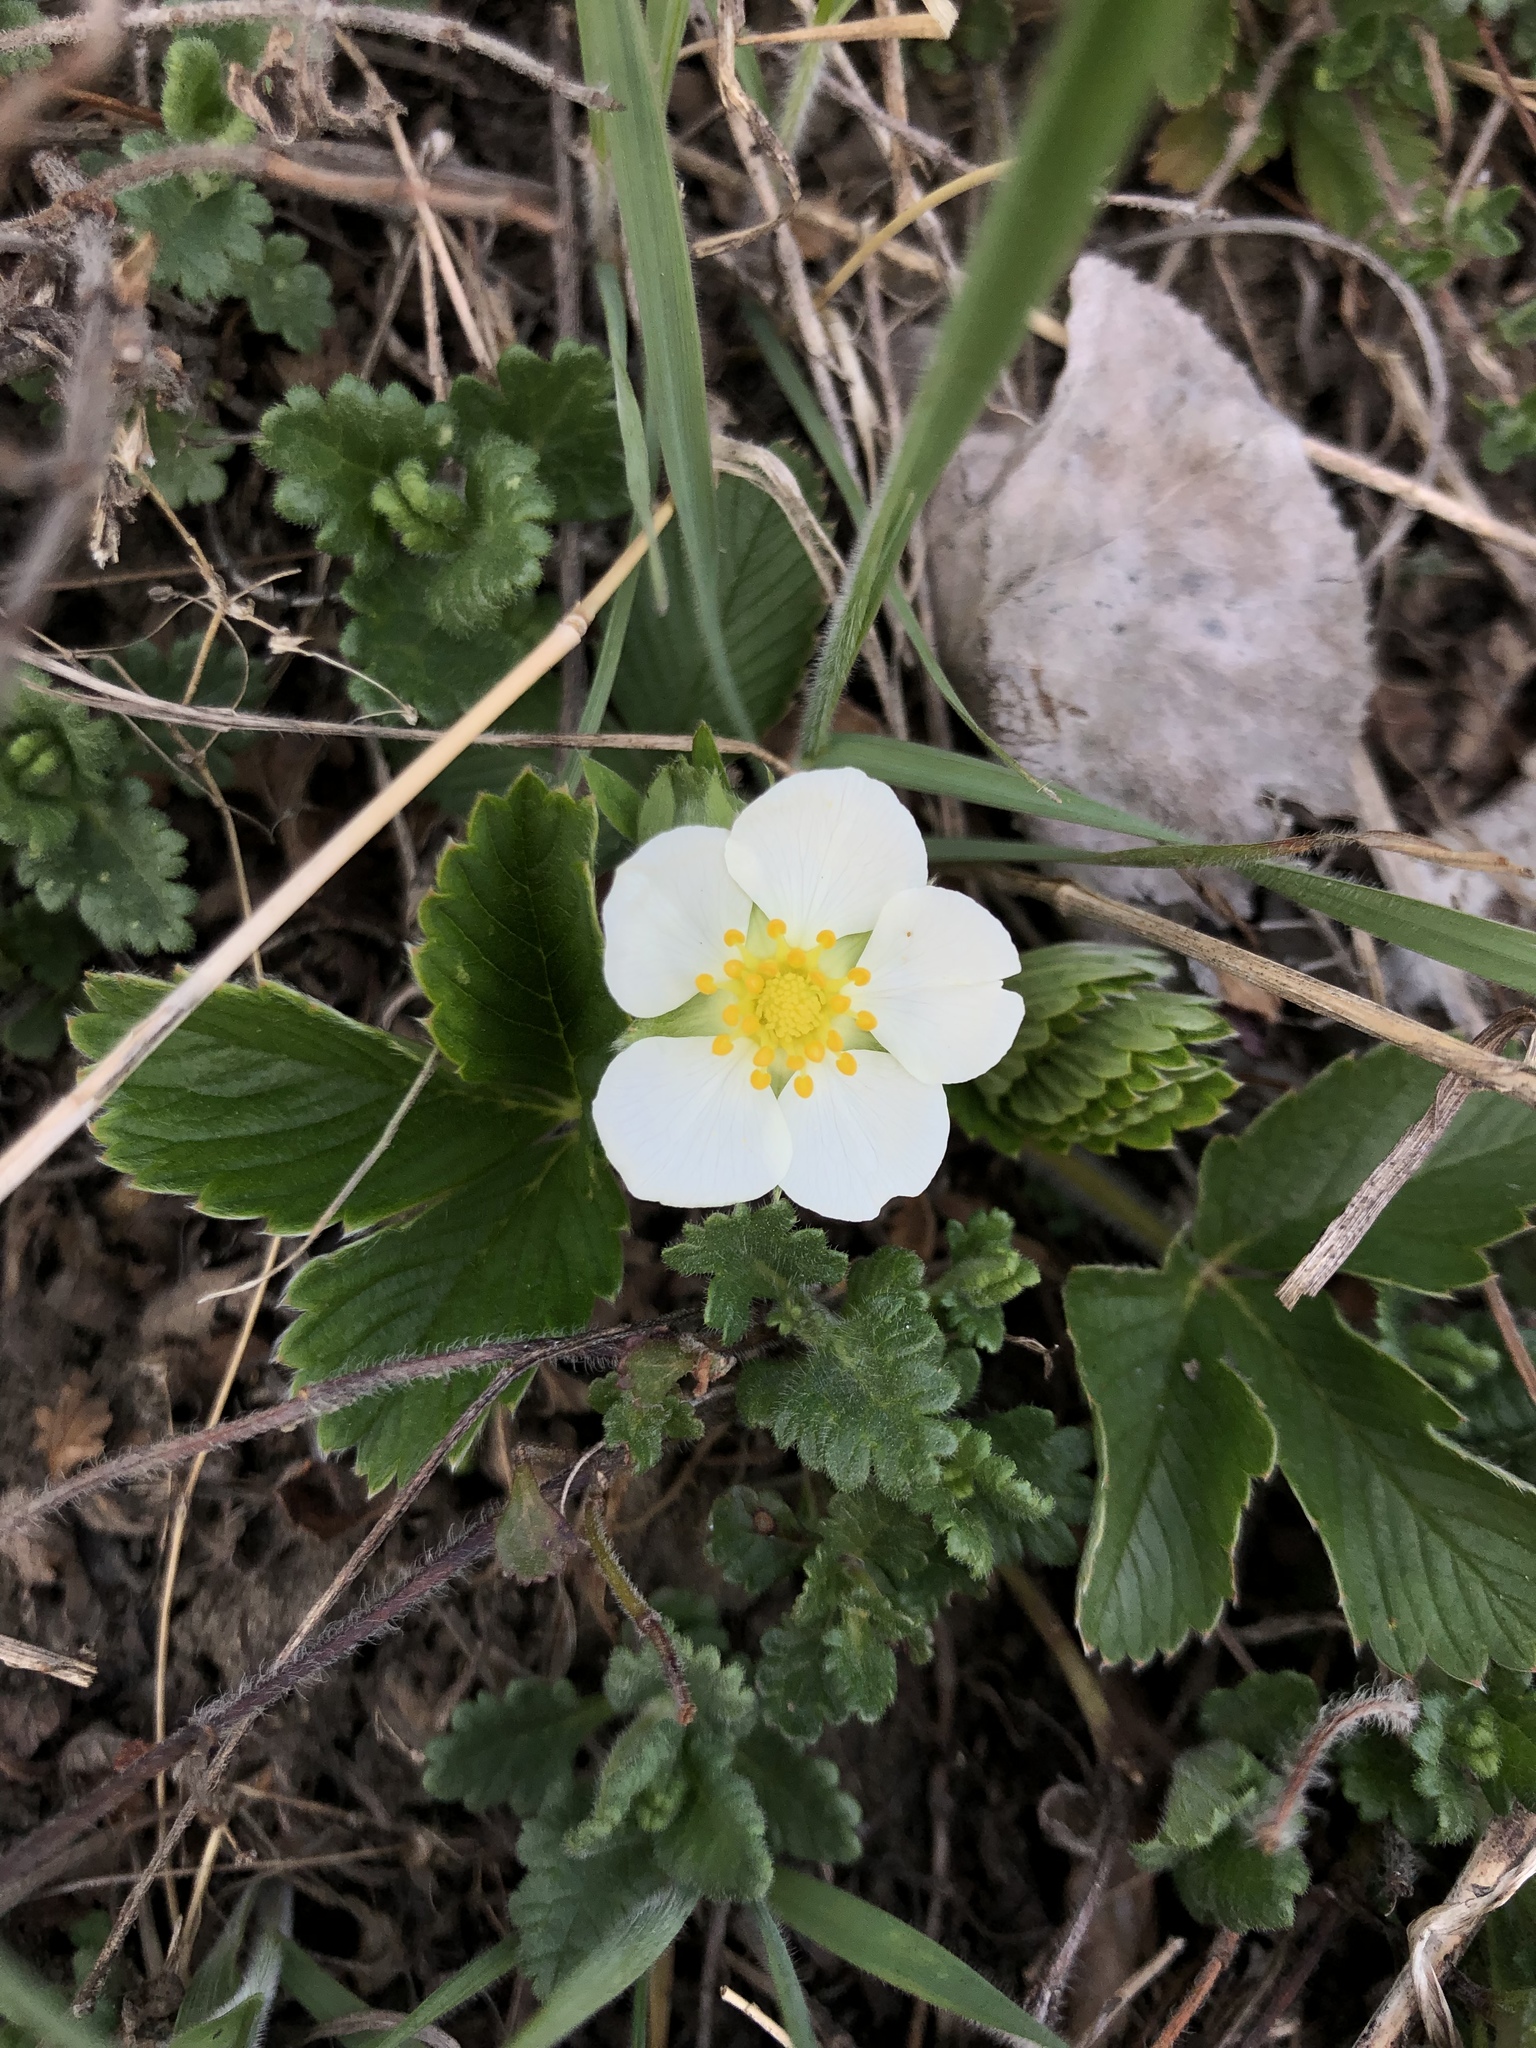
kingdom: Plantae
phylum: Tracheophyta
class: Magnoliopsida
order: Rosales
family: Rosaceae
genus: Fragaria
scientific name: Fragaria vesca
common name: Wild strawberry
